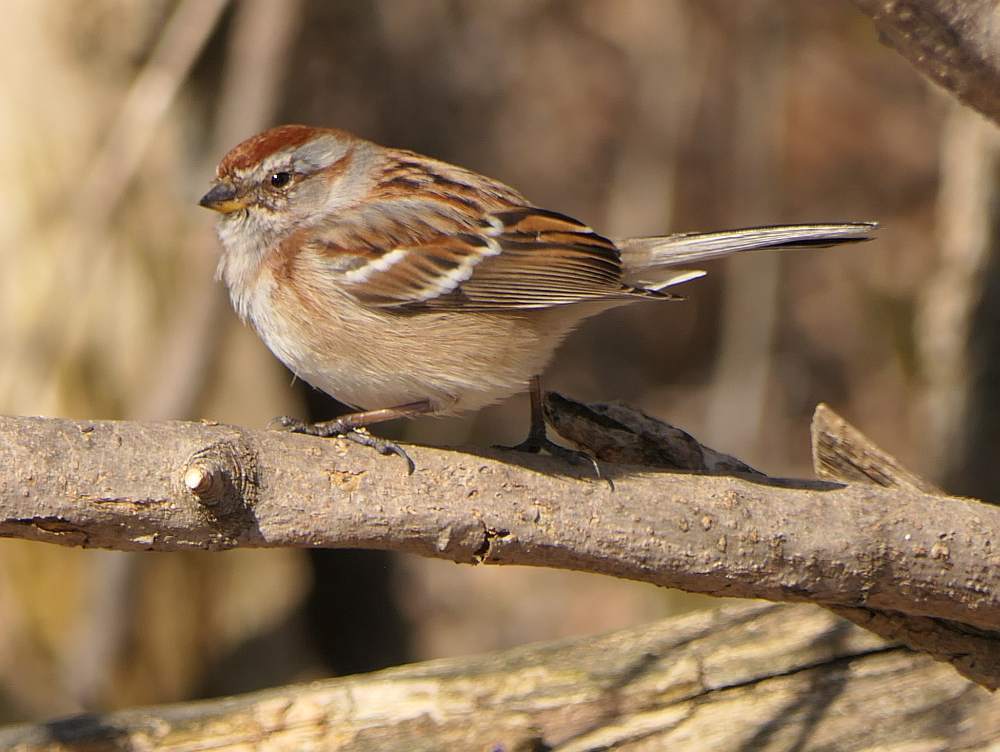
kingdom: Animalia
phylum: Chordata
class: Aves
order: Passeriformes
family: Passerellidae
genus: Spizelloides
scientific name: Spizelloides arborea
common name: American tree sparrow
